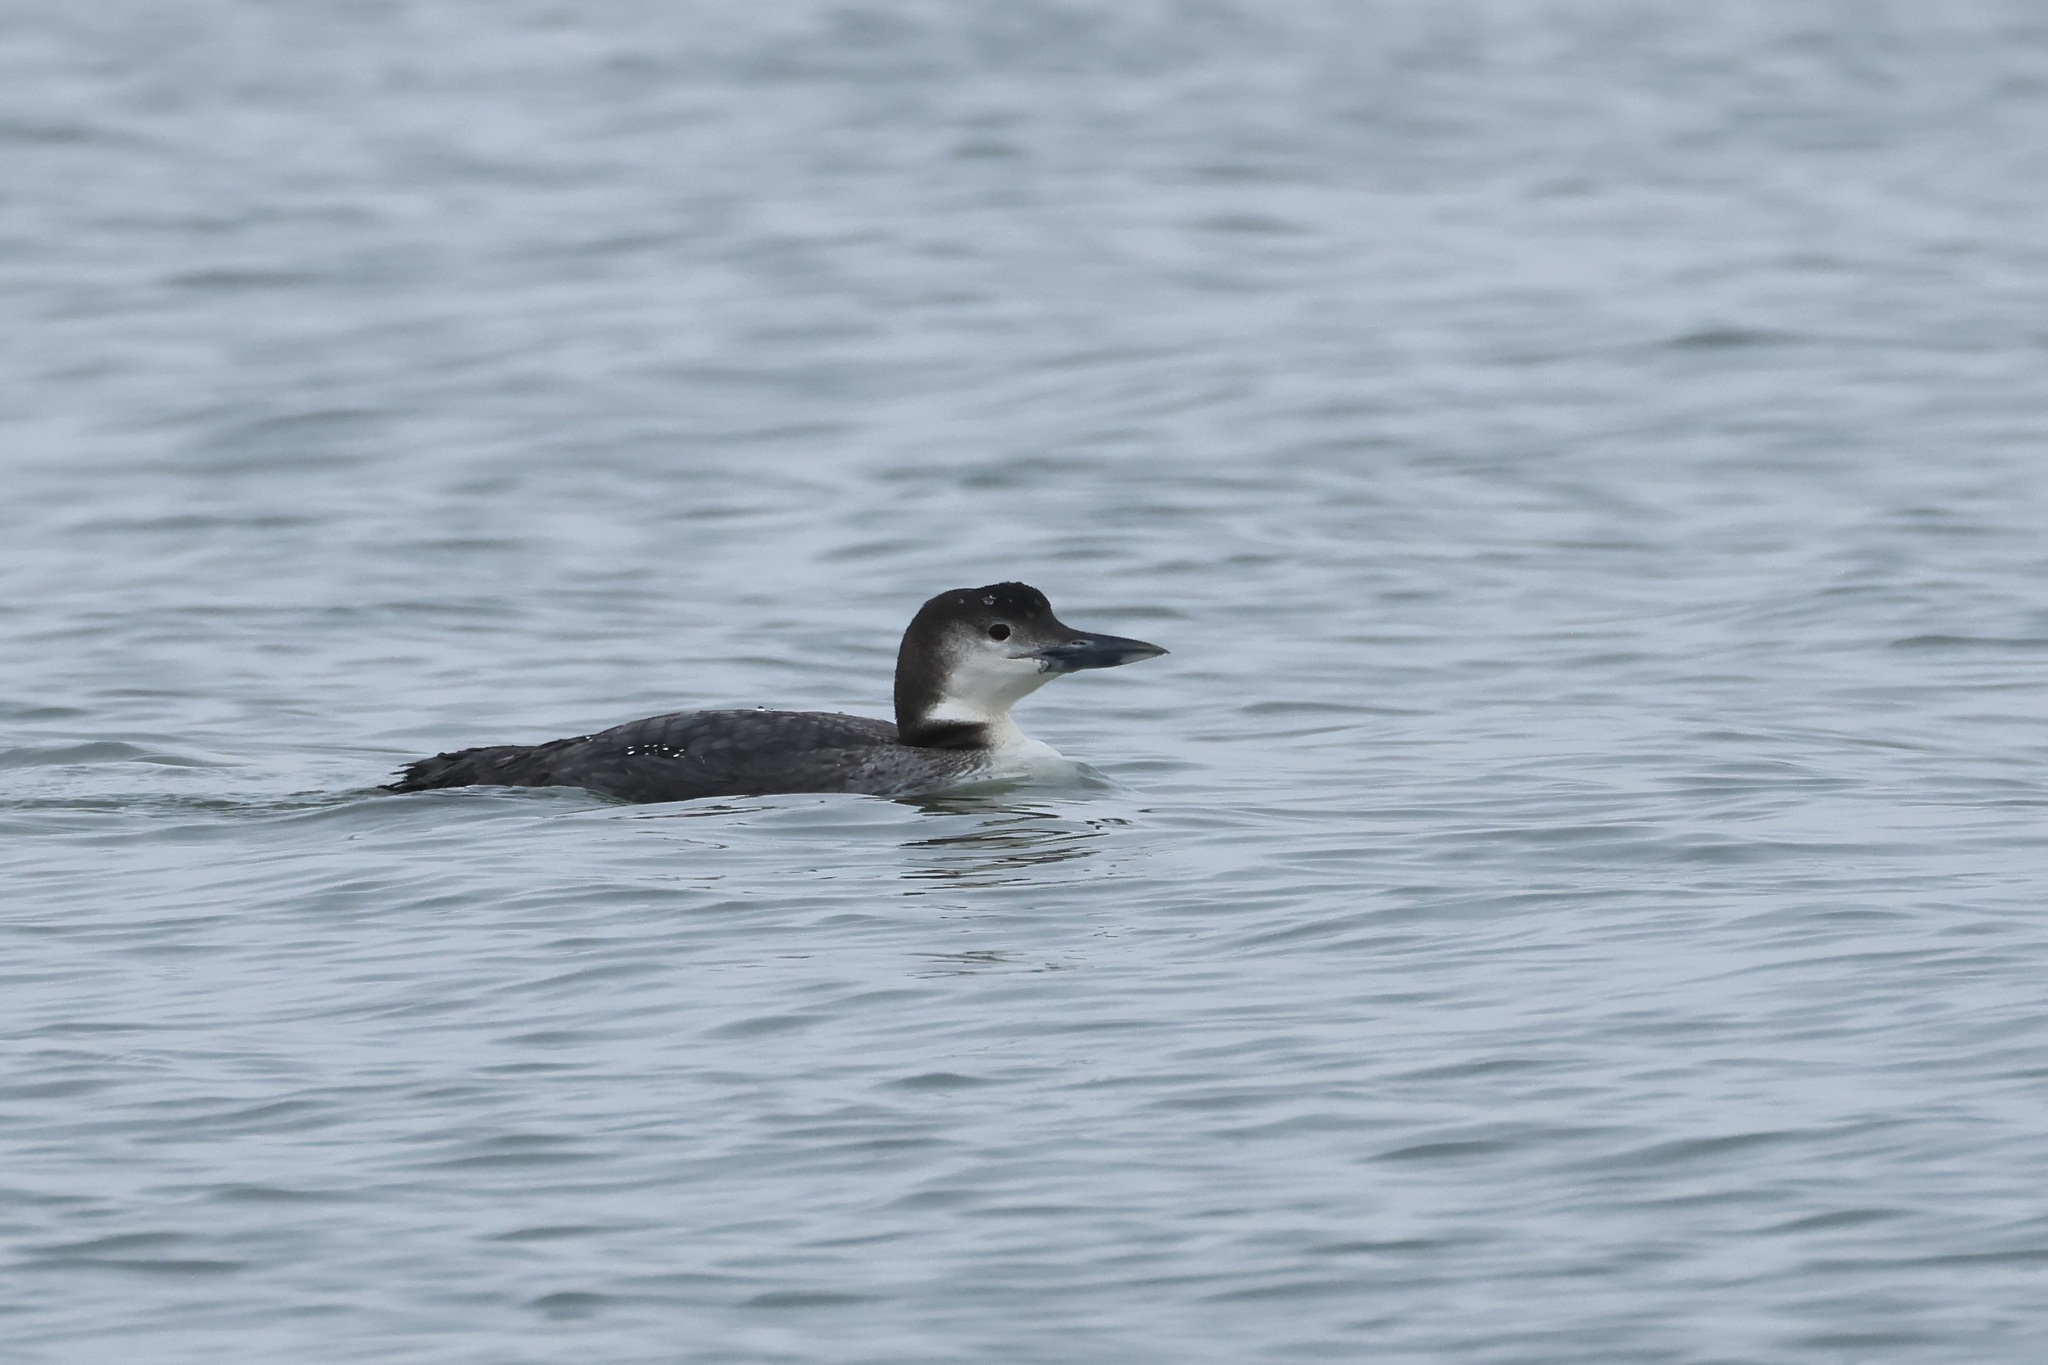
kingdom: Animalia
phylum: Chordata
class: Aves
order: Gaviiformes
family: Gaviidae
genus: Gavia
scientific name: Gavia immer
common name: Common loon
